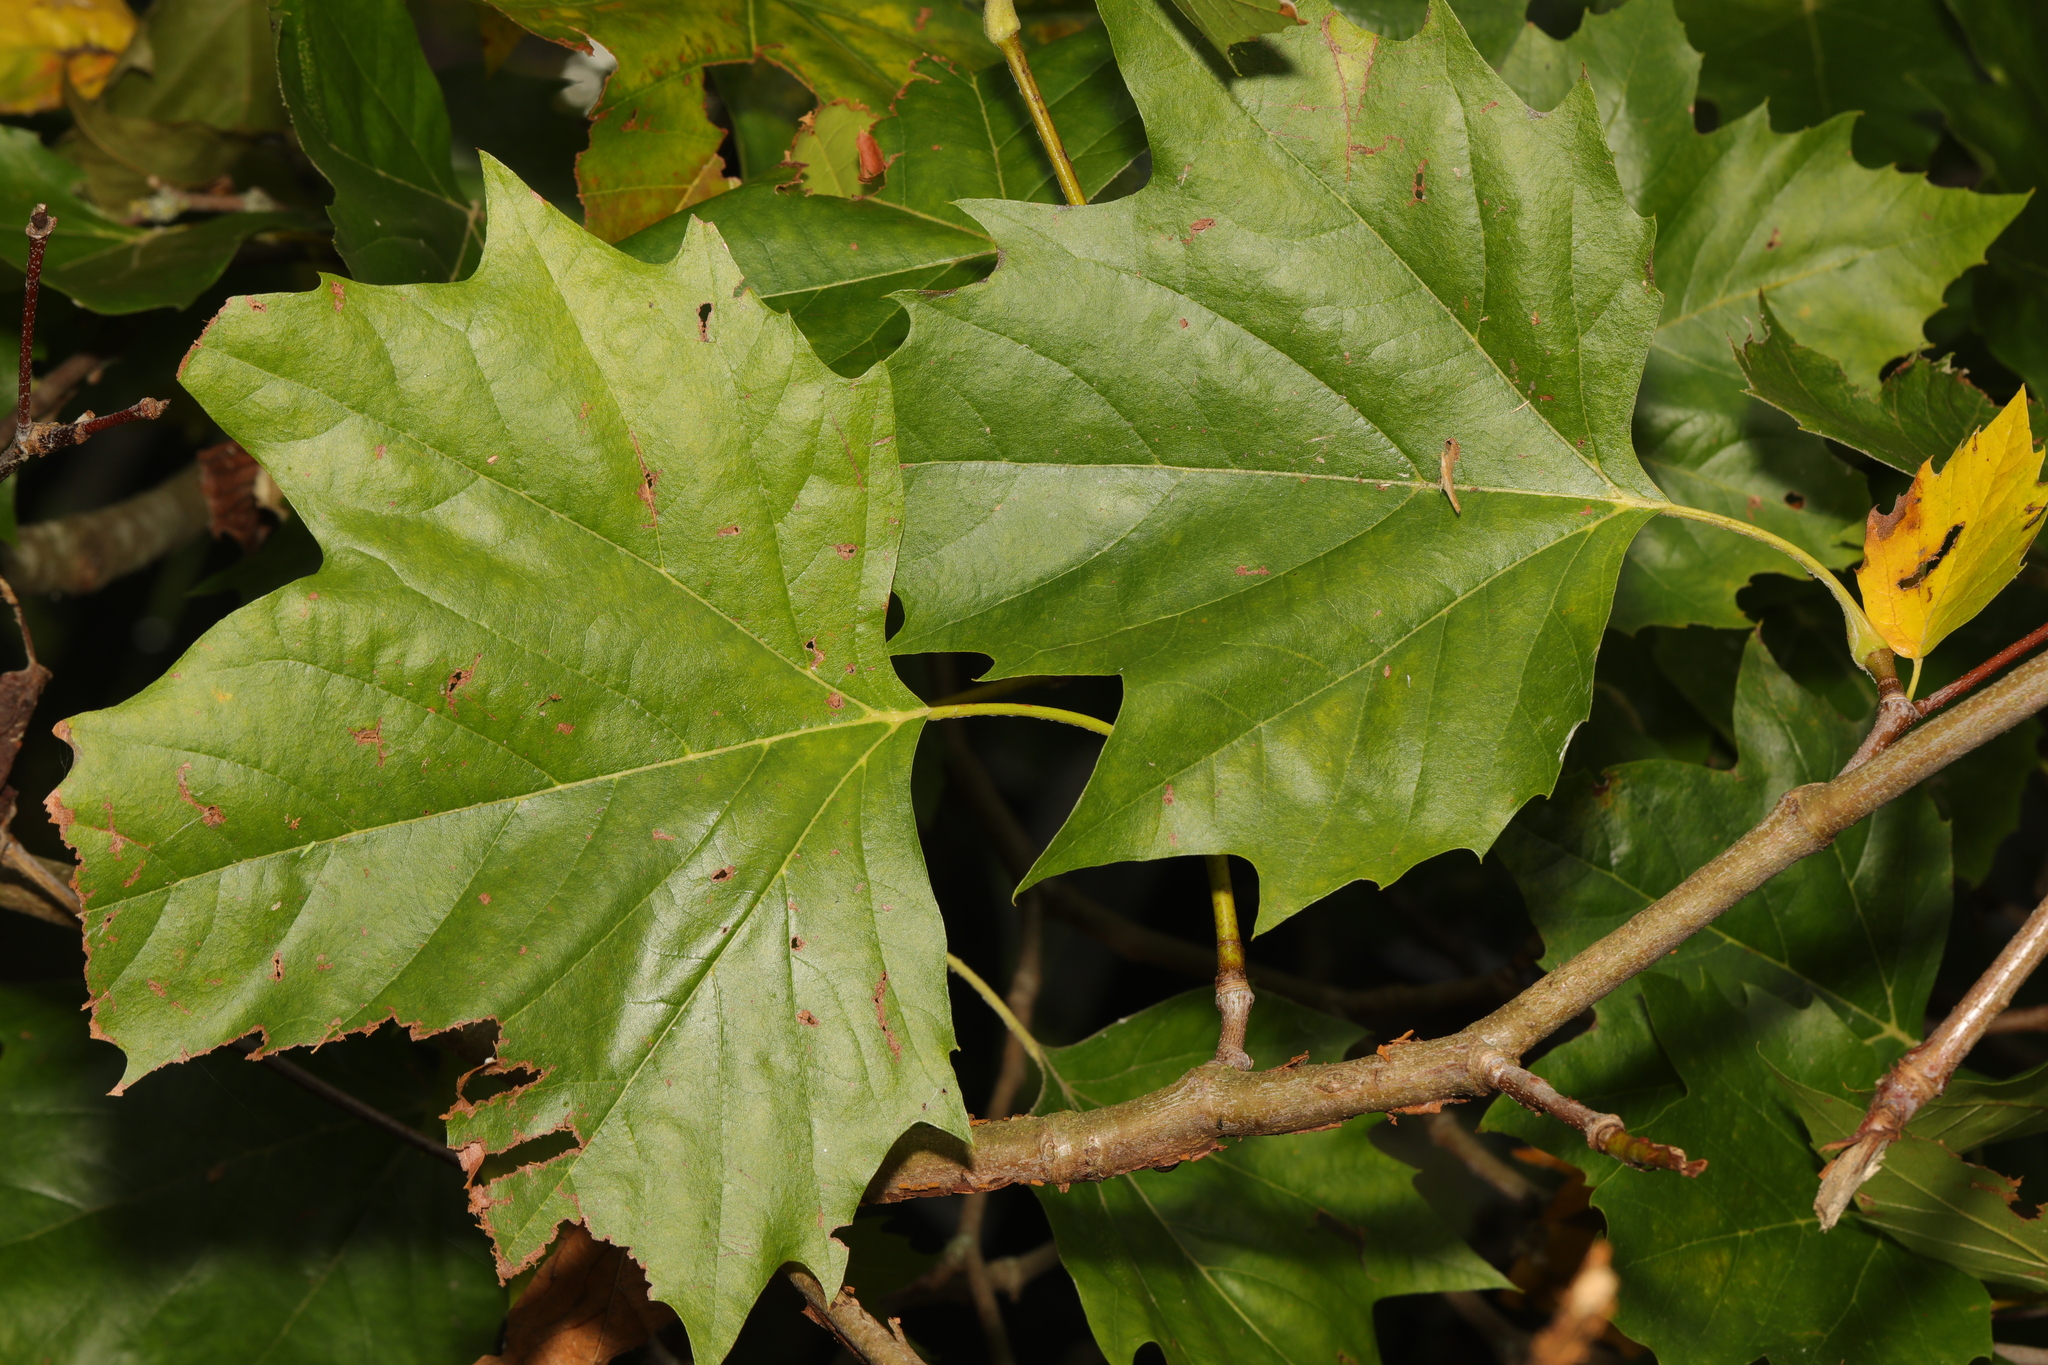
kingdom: Plantae
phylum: Tracheophyta
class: Magnoliopsida
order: Proteales
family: Platanaceae
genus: Platanus
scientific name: Platanus hispanica
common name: London plane
